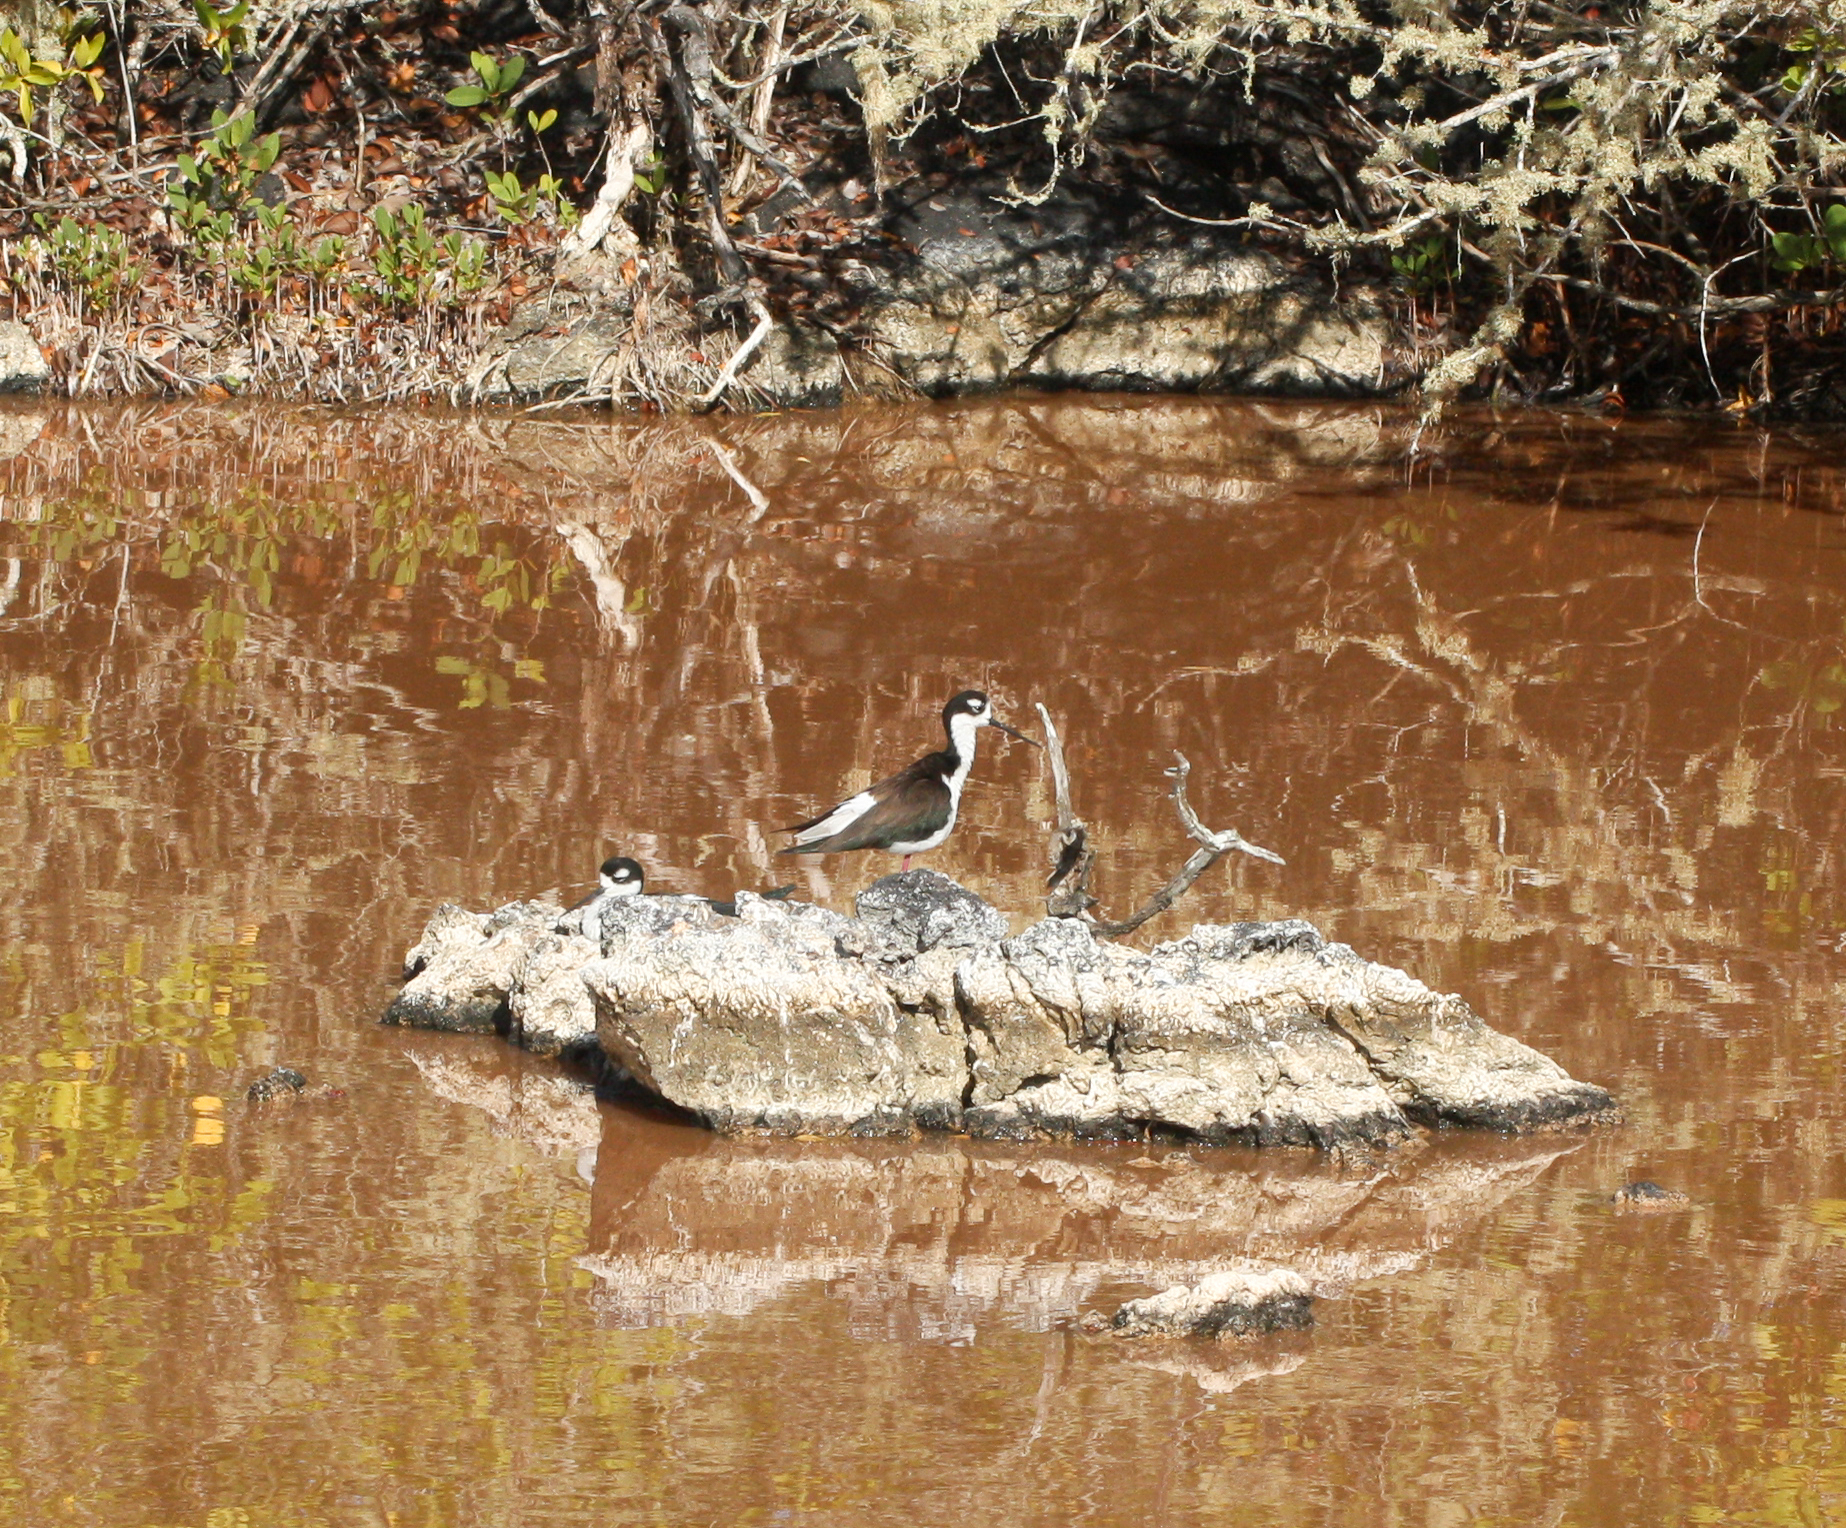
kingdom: Animalia
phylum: Chordata
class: Aves
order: Charadriiformes
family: Recurvirostridae
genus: Himantopus
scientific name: Himantopus mexicanus
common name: Black-necked stilt
